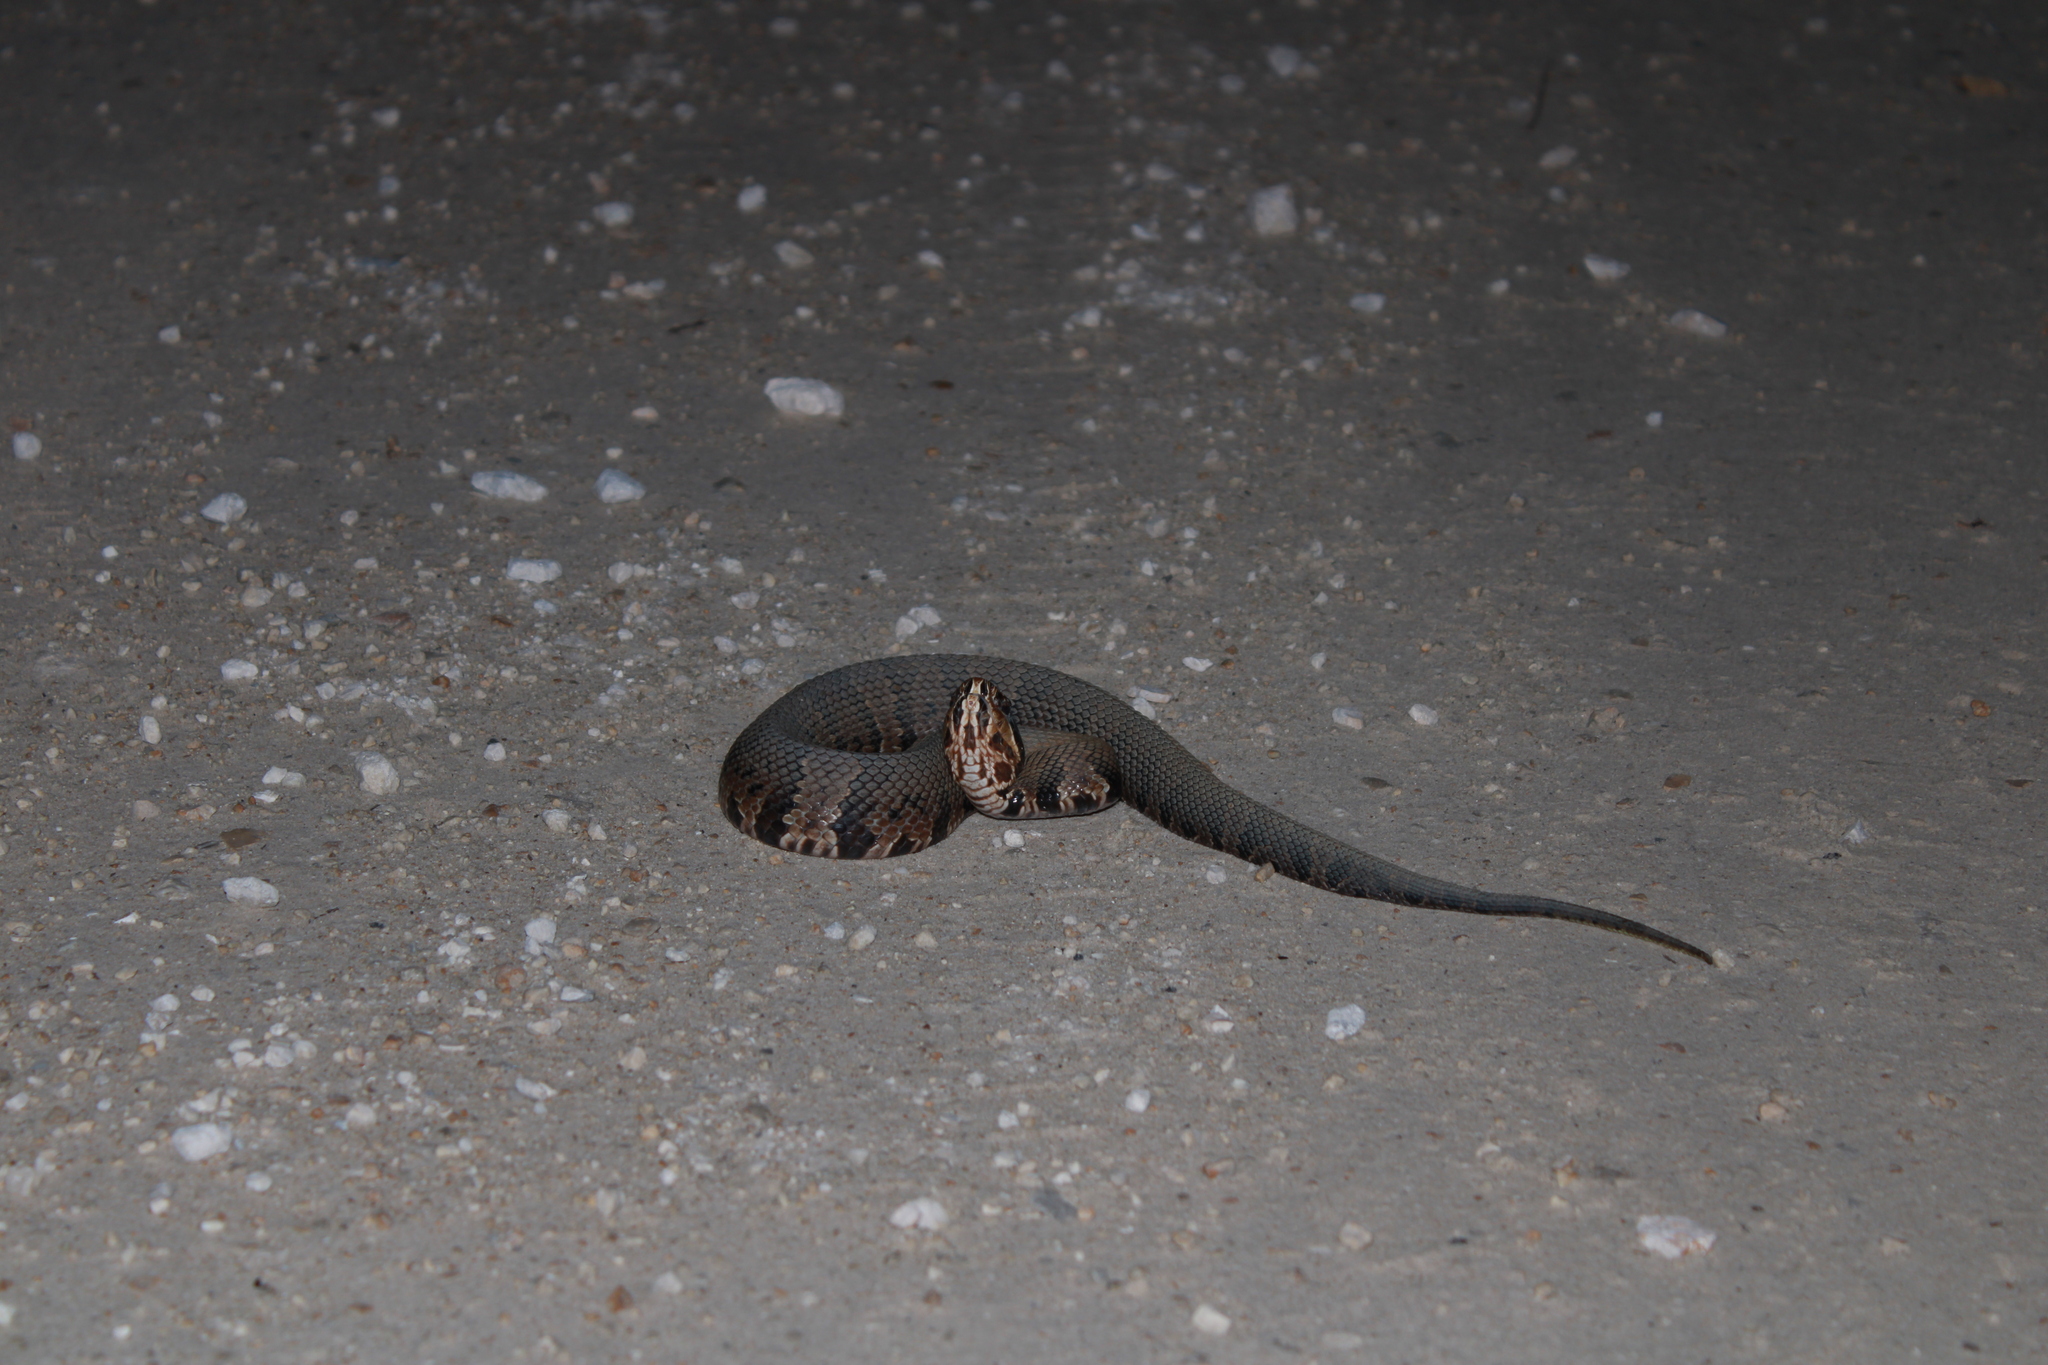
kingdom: Animalia
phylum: Chordata
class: Squamata
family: Viperidae
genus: Agkistrodon
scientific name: Agkistrodon conanti
